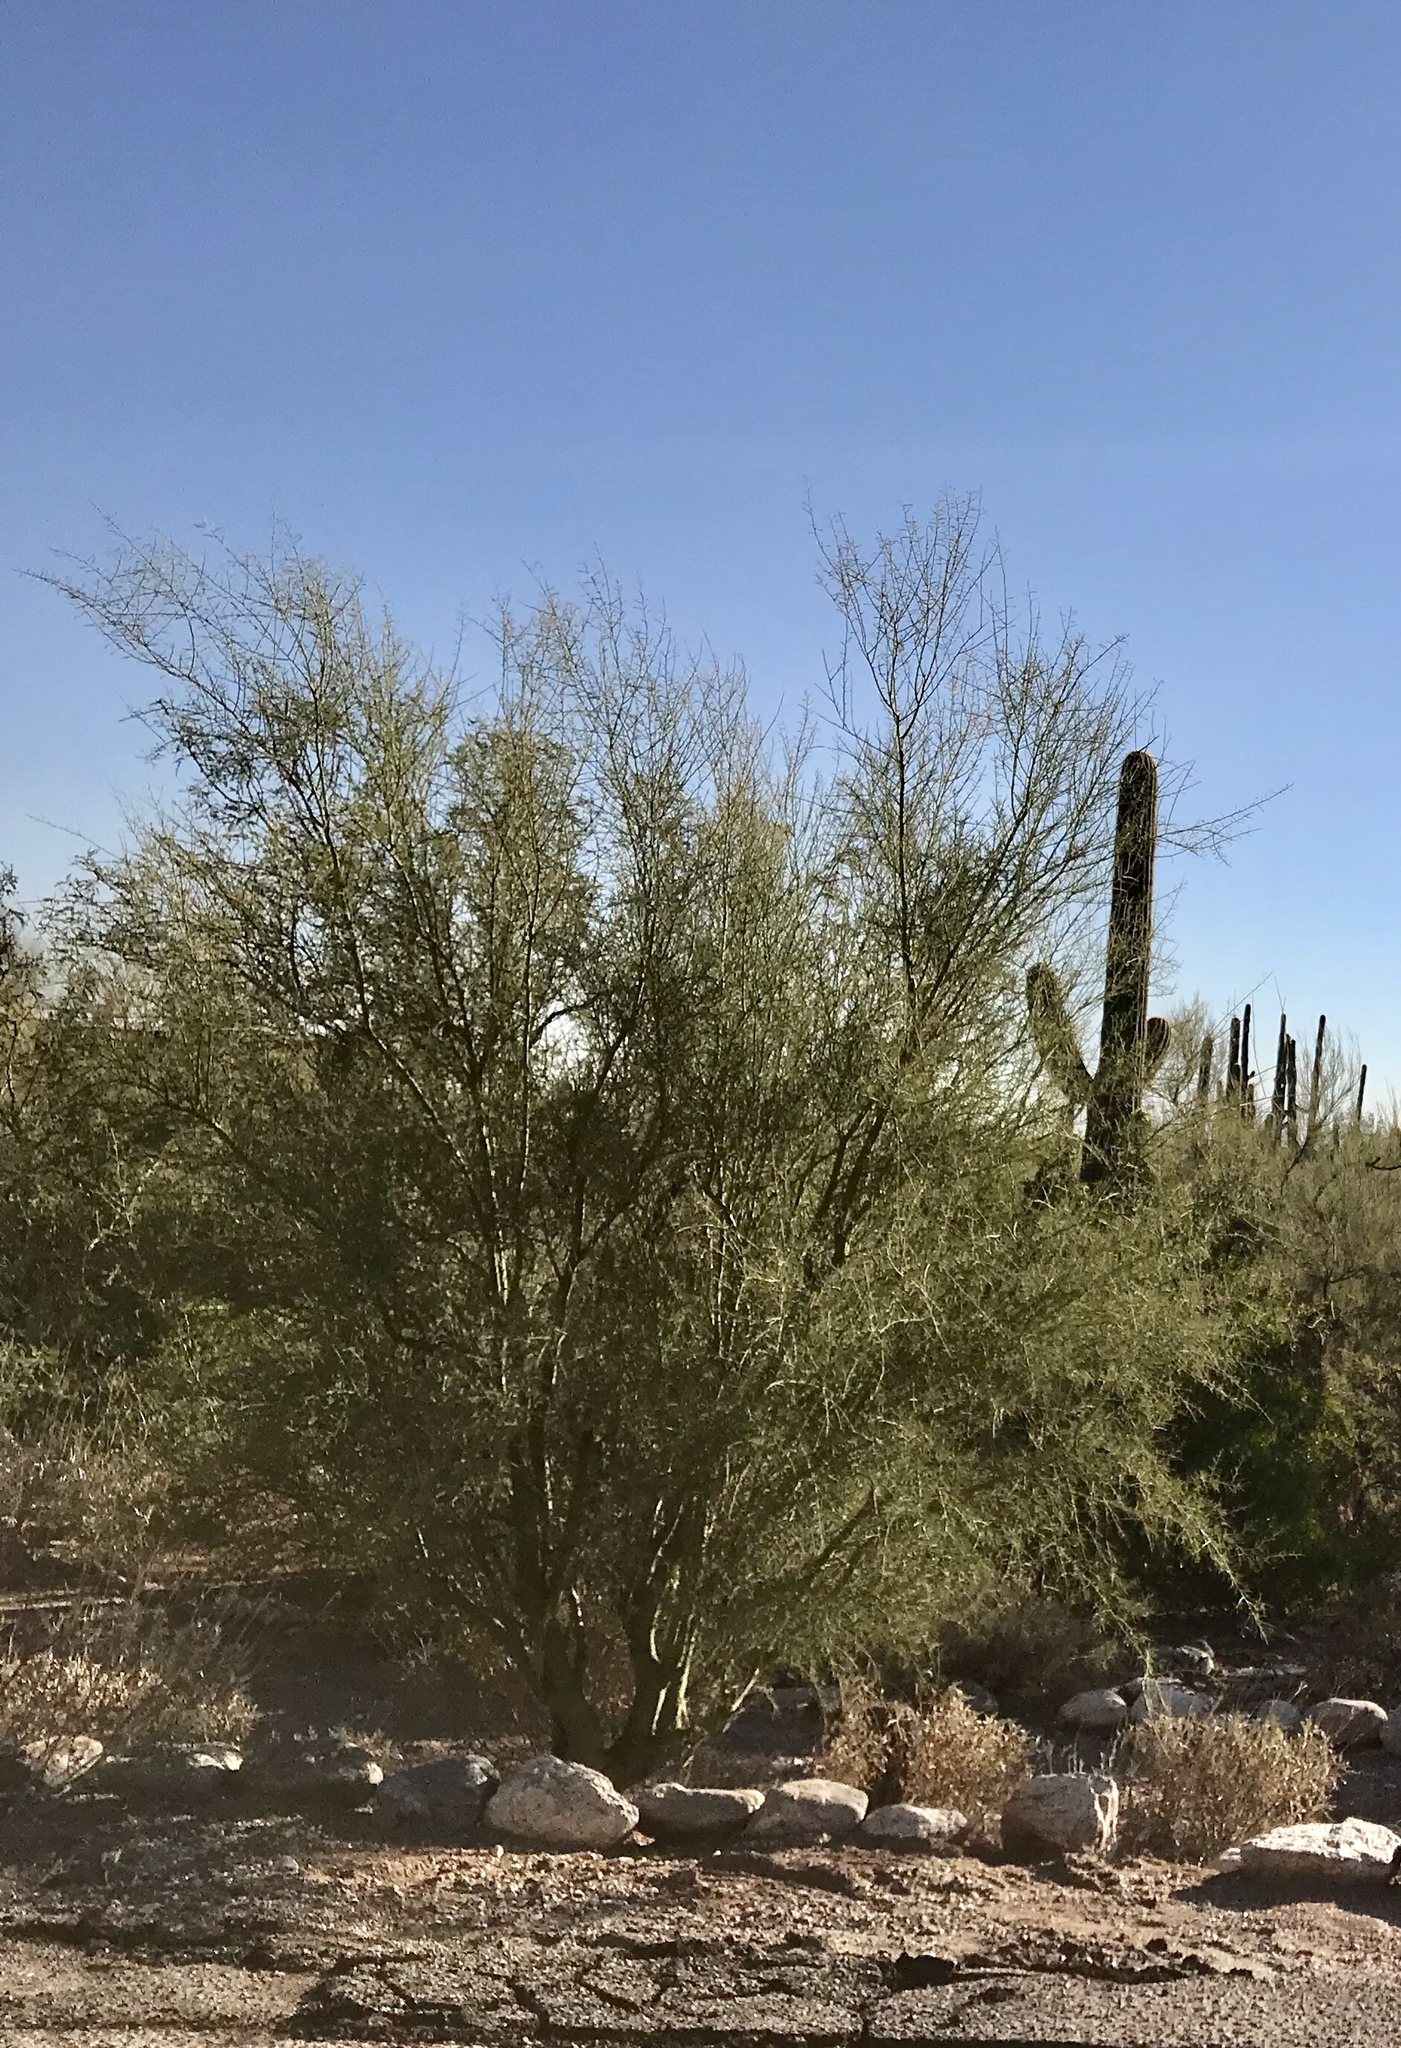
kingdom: Plantae
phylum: Tracheophyta
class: Magnoliopsida
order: Fabales
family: Fabaceae
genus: Parkinsonia
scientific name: Parkinsonia microphylla
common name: Yellow paloverde
